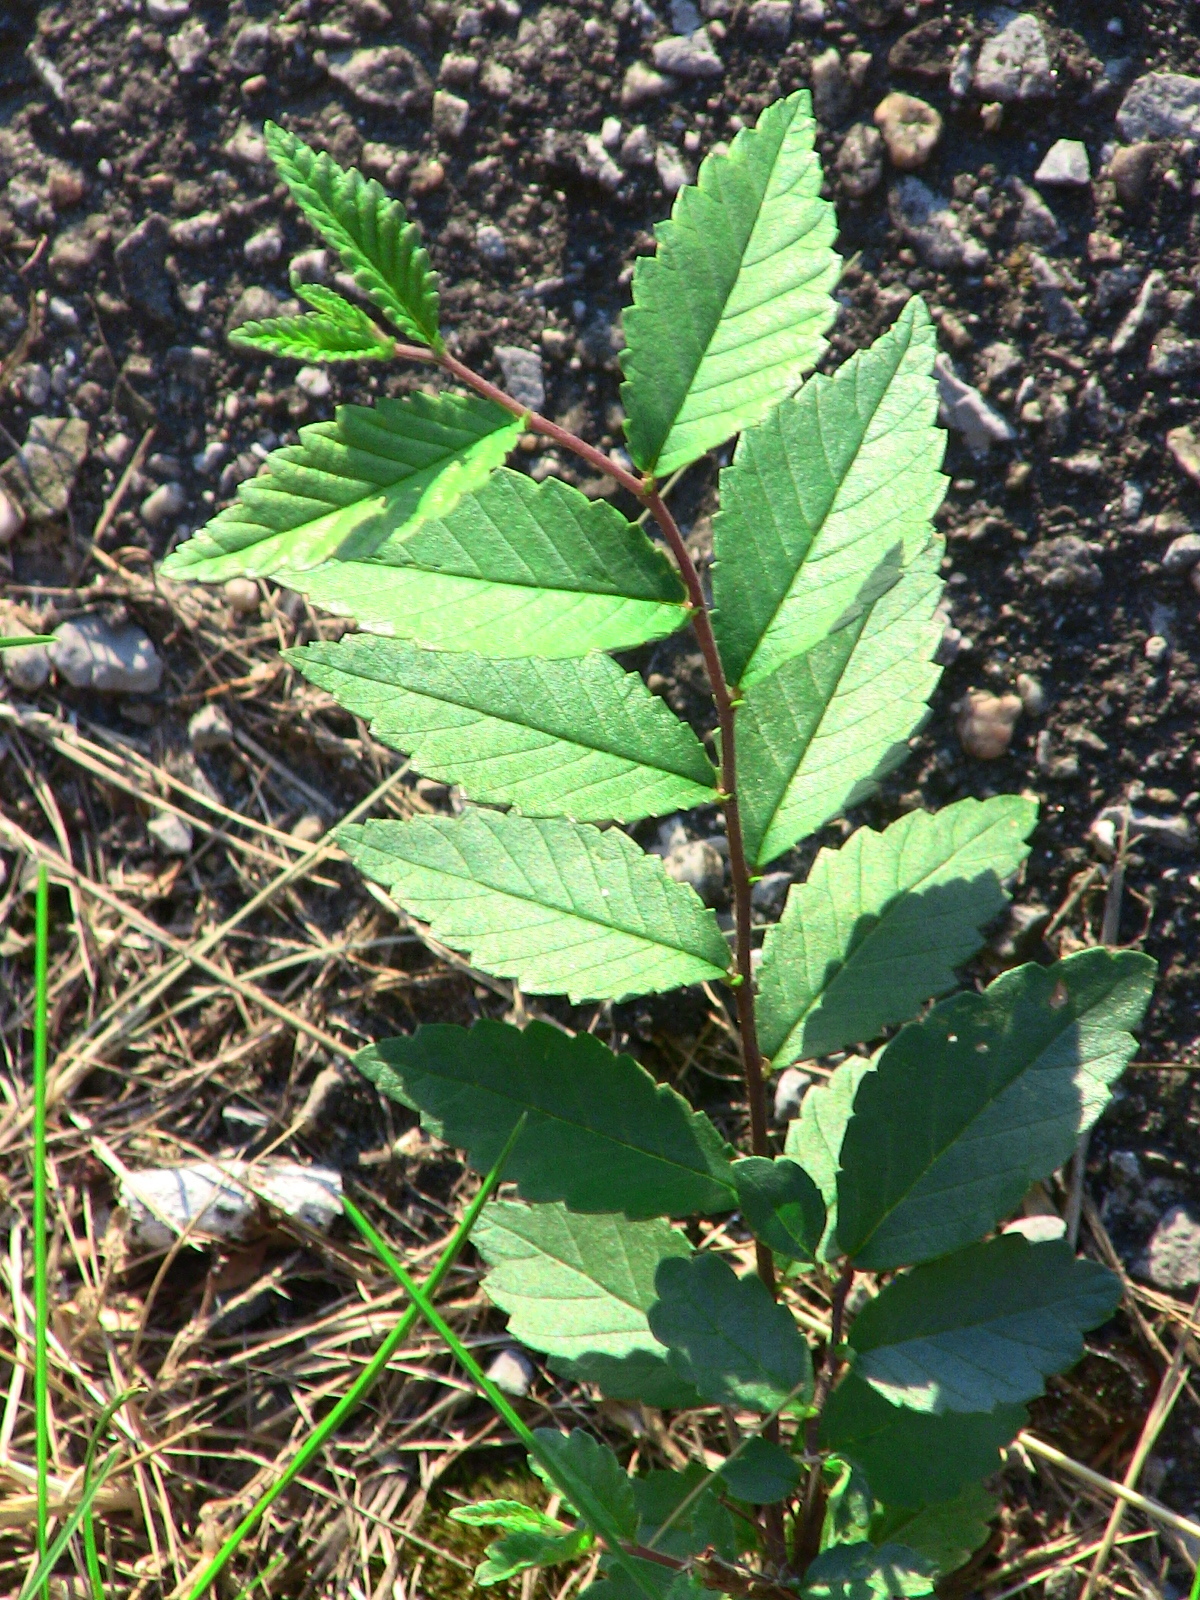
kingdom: Plantae
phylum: Tracheophyta
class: Magnoliopsida
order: Rosales
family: Ulmaceae
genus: Ulmus
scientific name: Ulmus pumila
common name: Siberian elm
